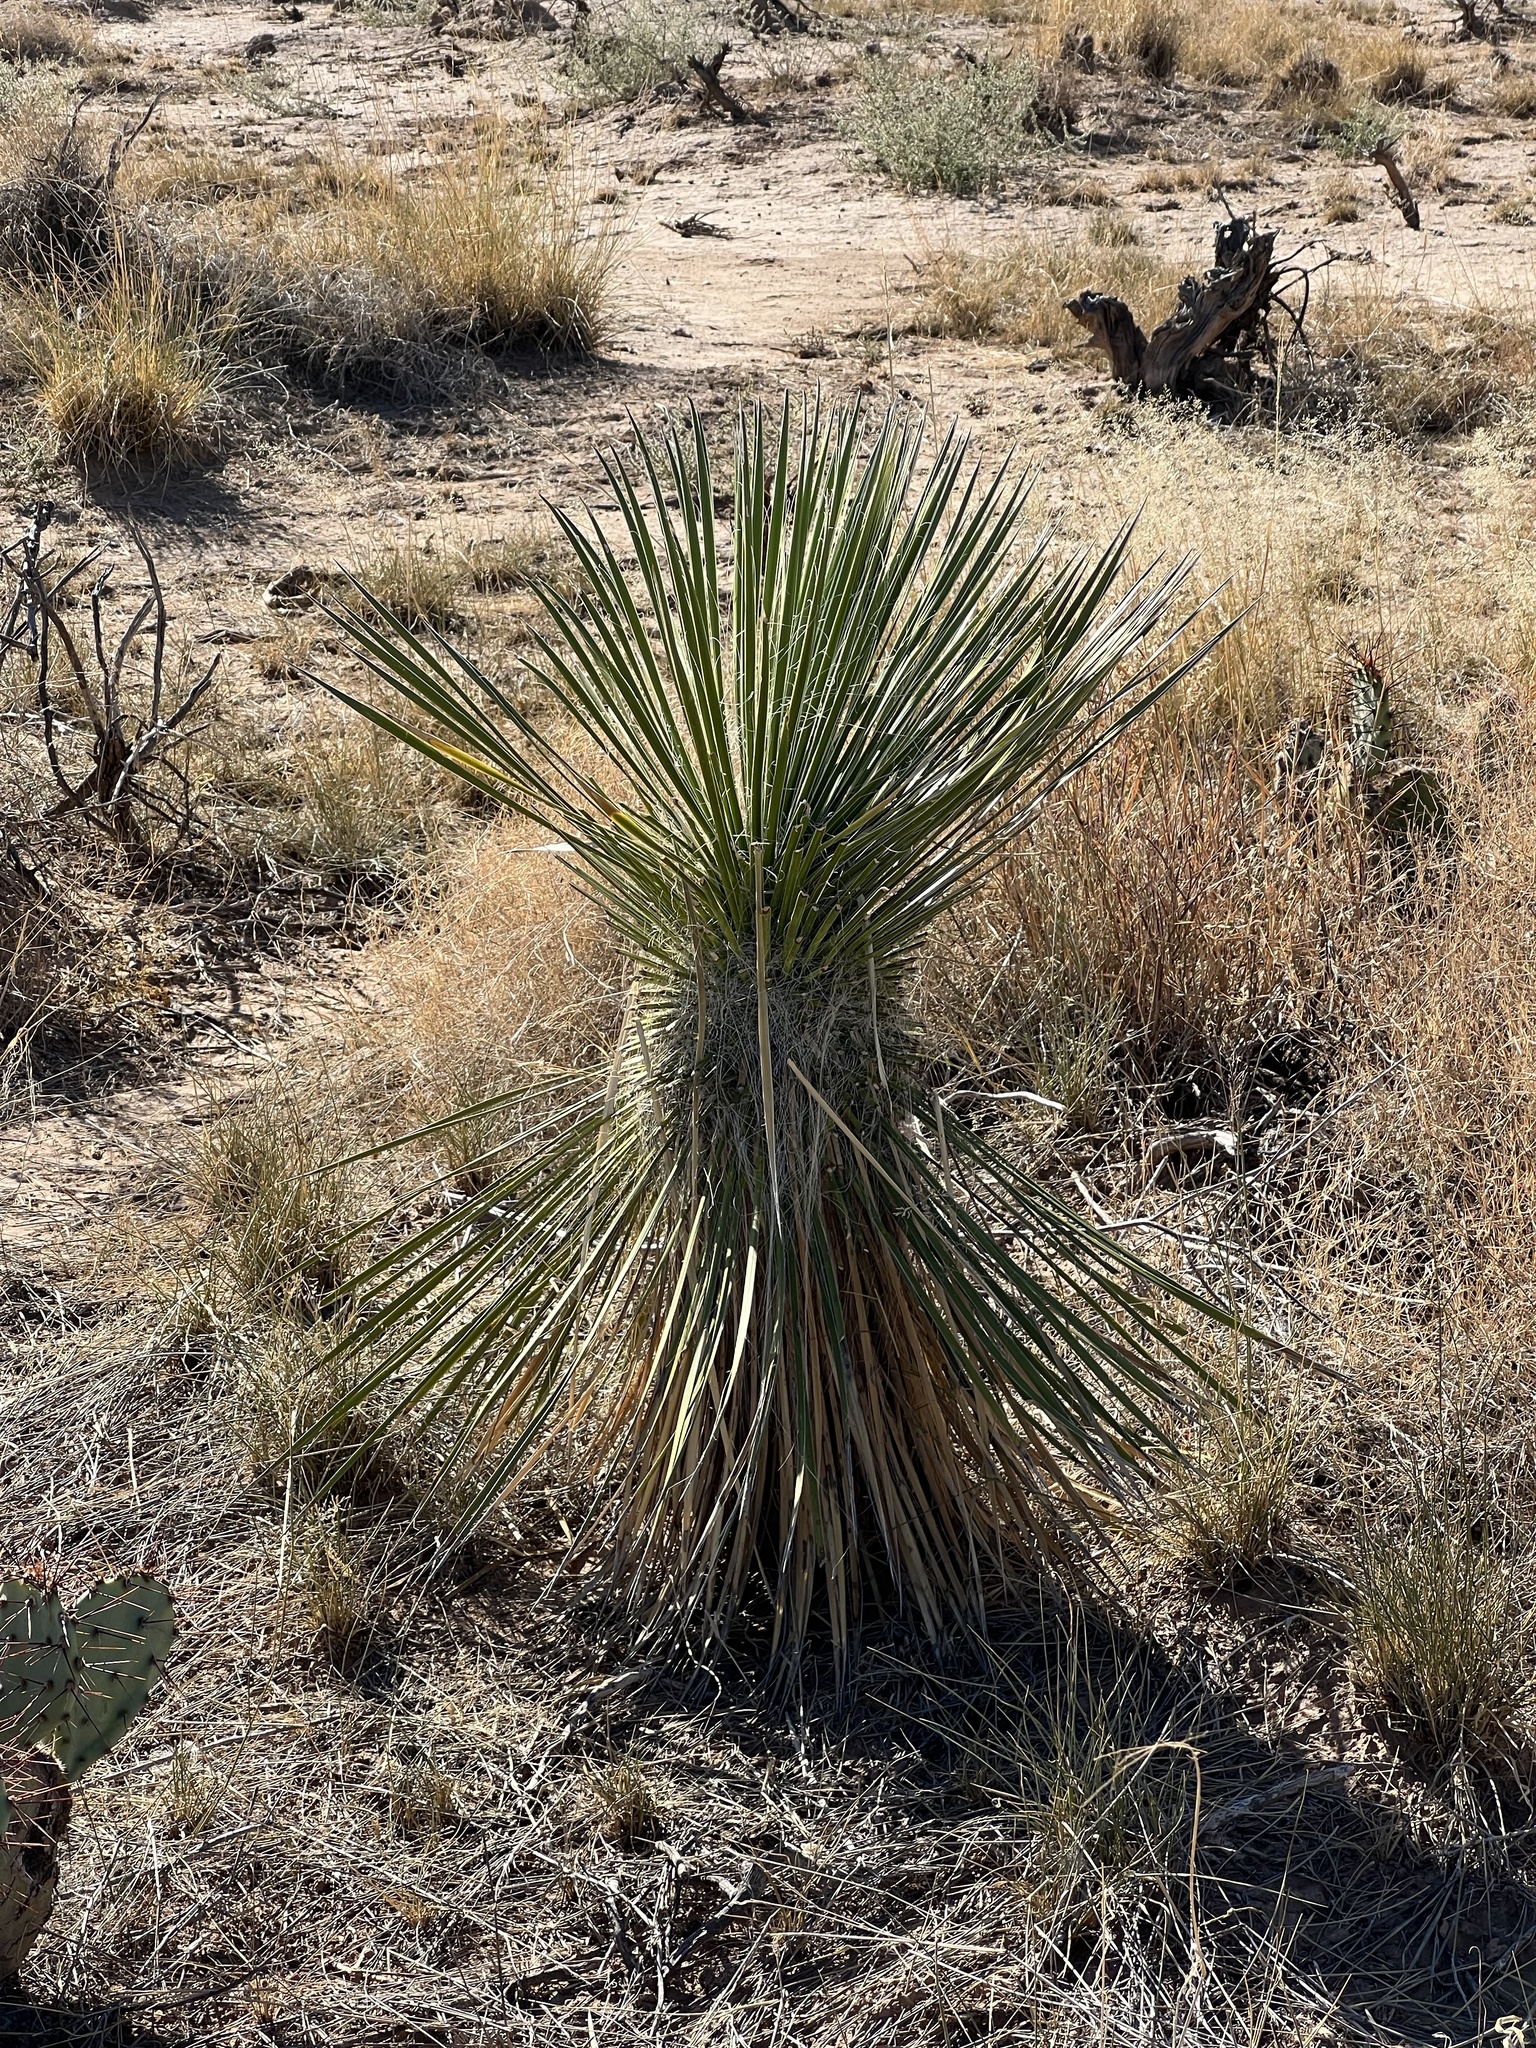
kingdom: Plantae
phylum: Tracheophyta
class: Liliopsida
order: Asparagales
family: Asparagaceae
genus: Yucca
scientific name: Yucca elata
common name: Palmella
